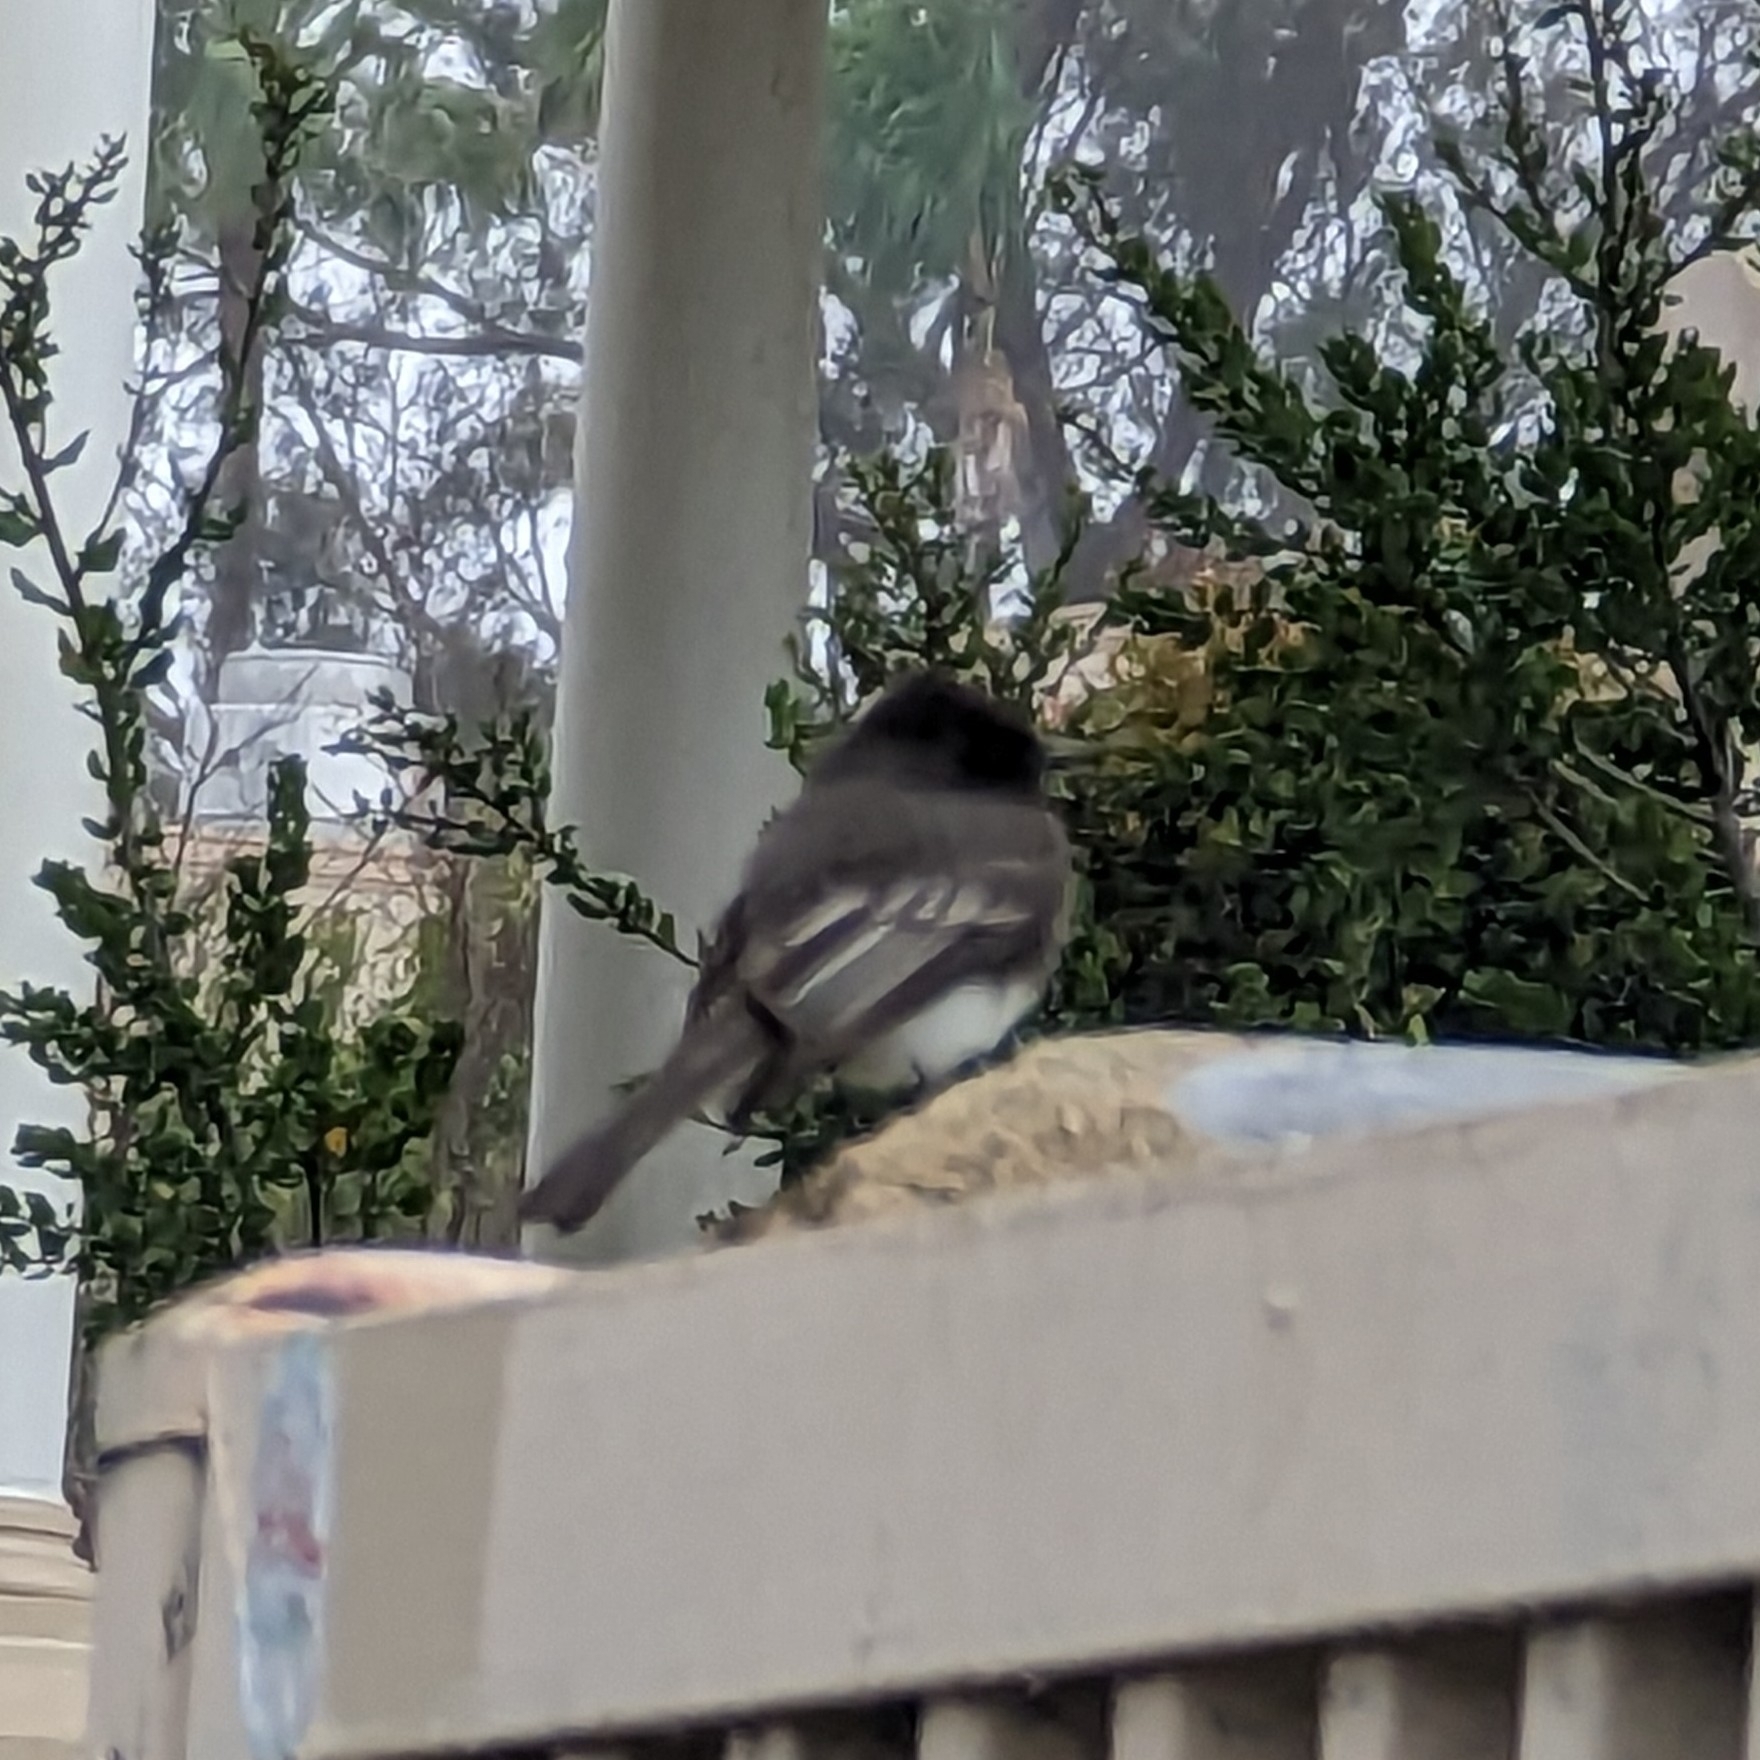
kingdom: Animalia
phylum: Chordata
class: Aves
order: Passeriformes
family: Tyrannidae
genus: Sayornis
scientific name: Sayornis nigricans
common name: Black phoebe
